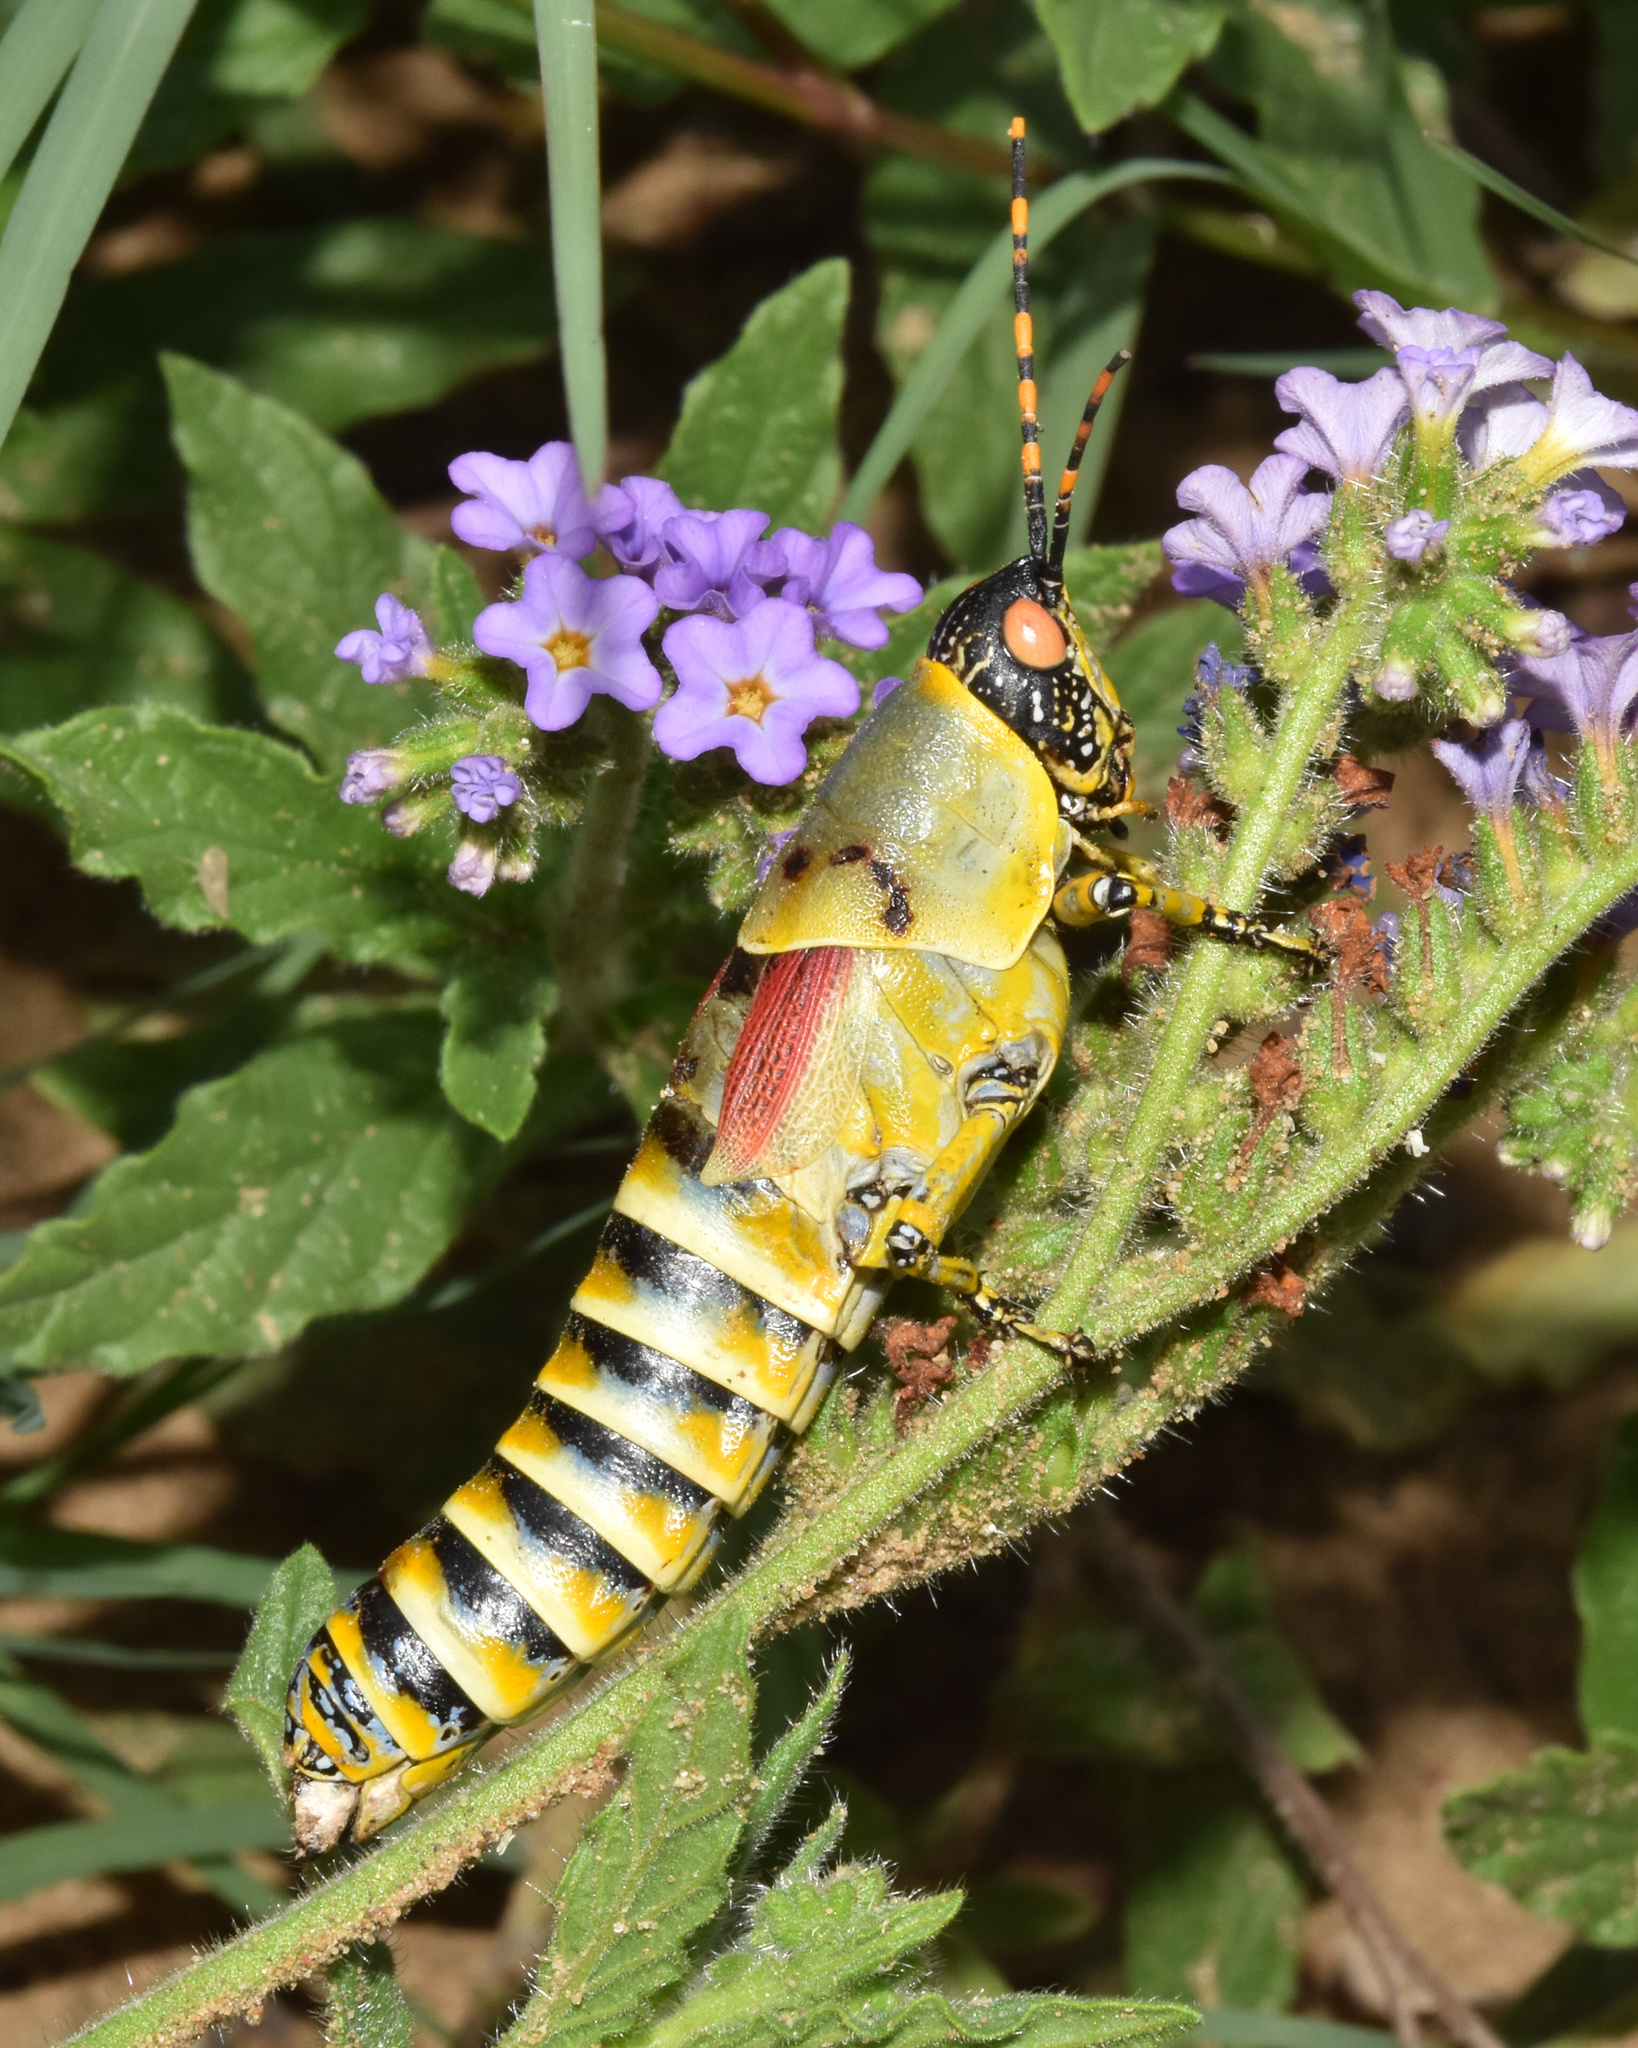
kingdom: Animalia
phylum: Arthropoda
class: Insecta
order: Orthoptera
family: Pyrgomorphidae
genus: Zonocerus
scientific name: Zonocerus elegans
